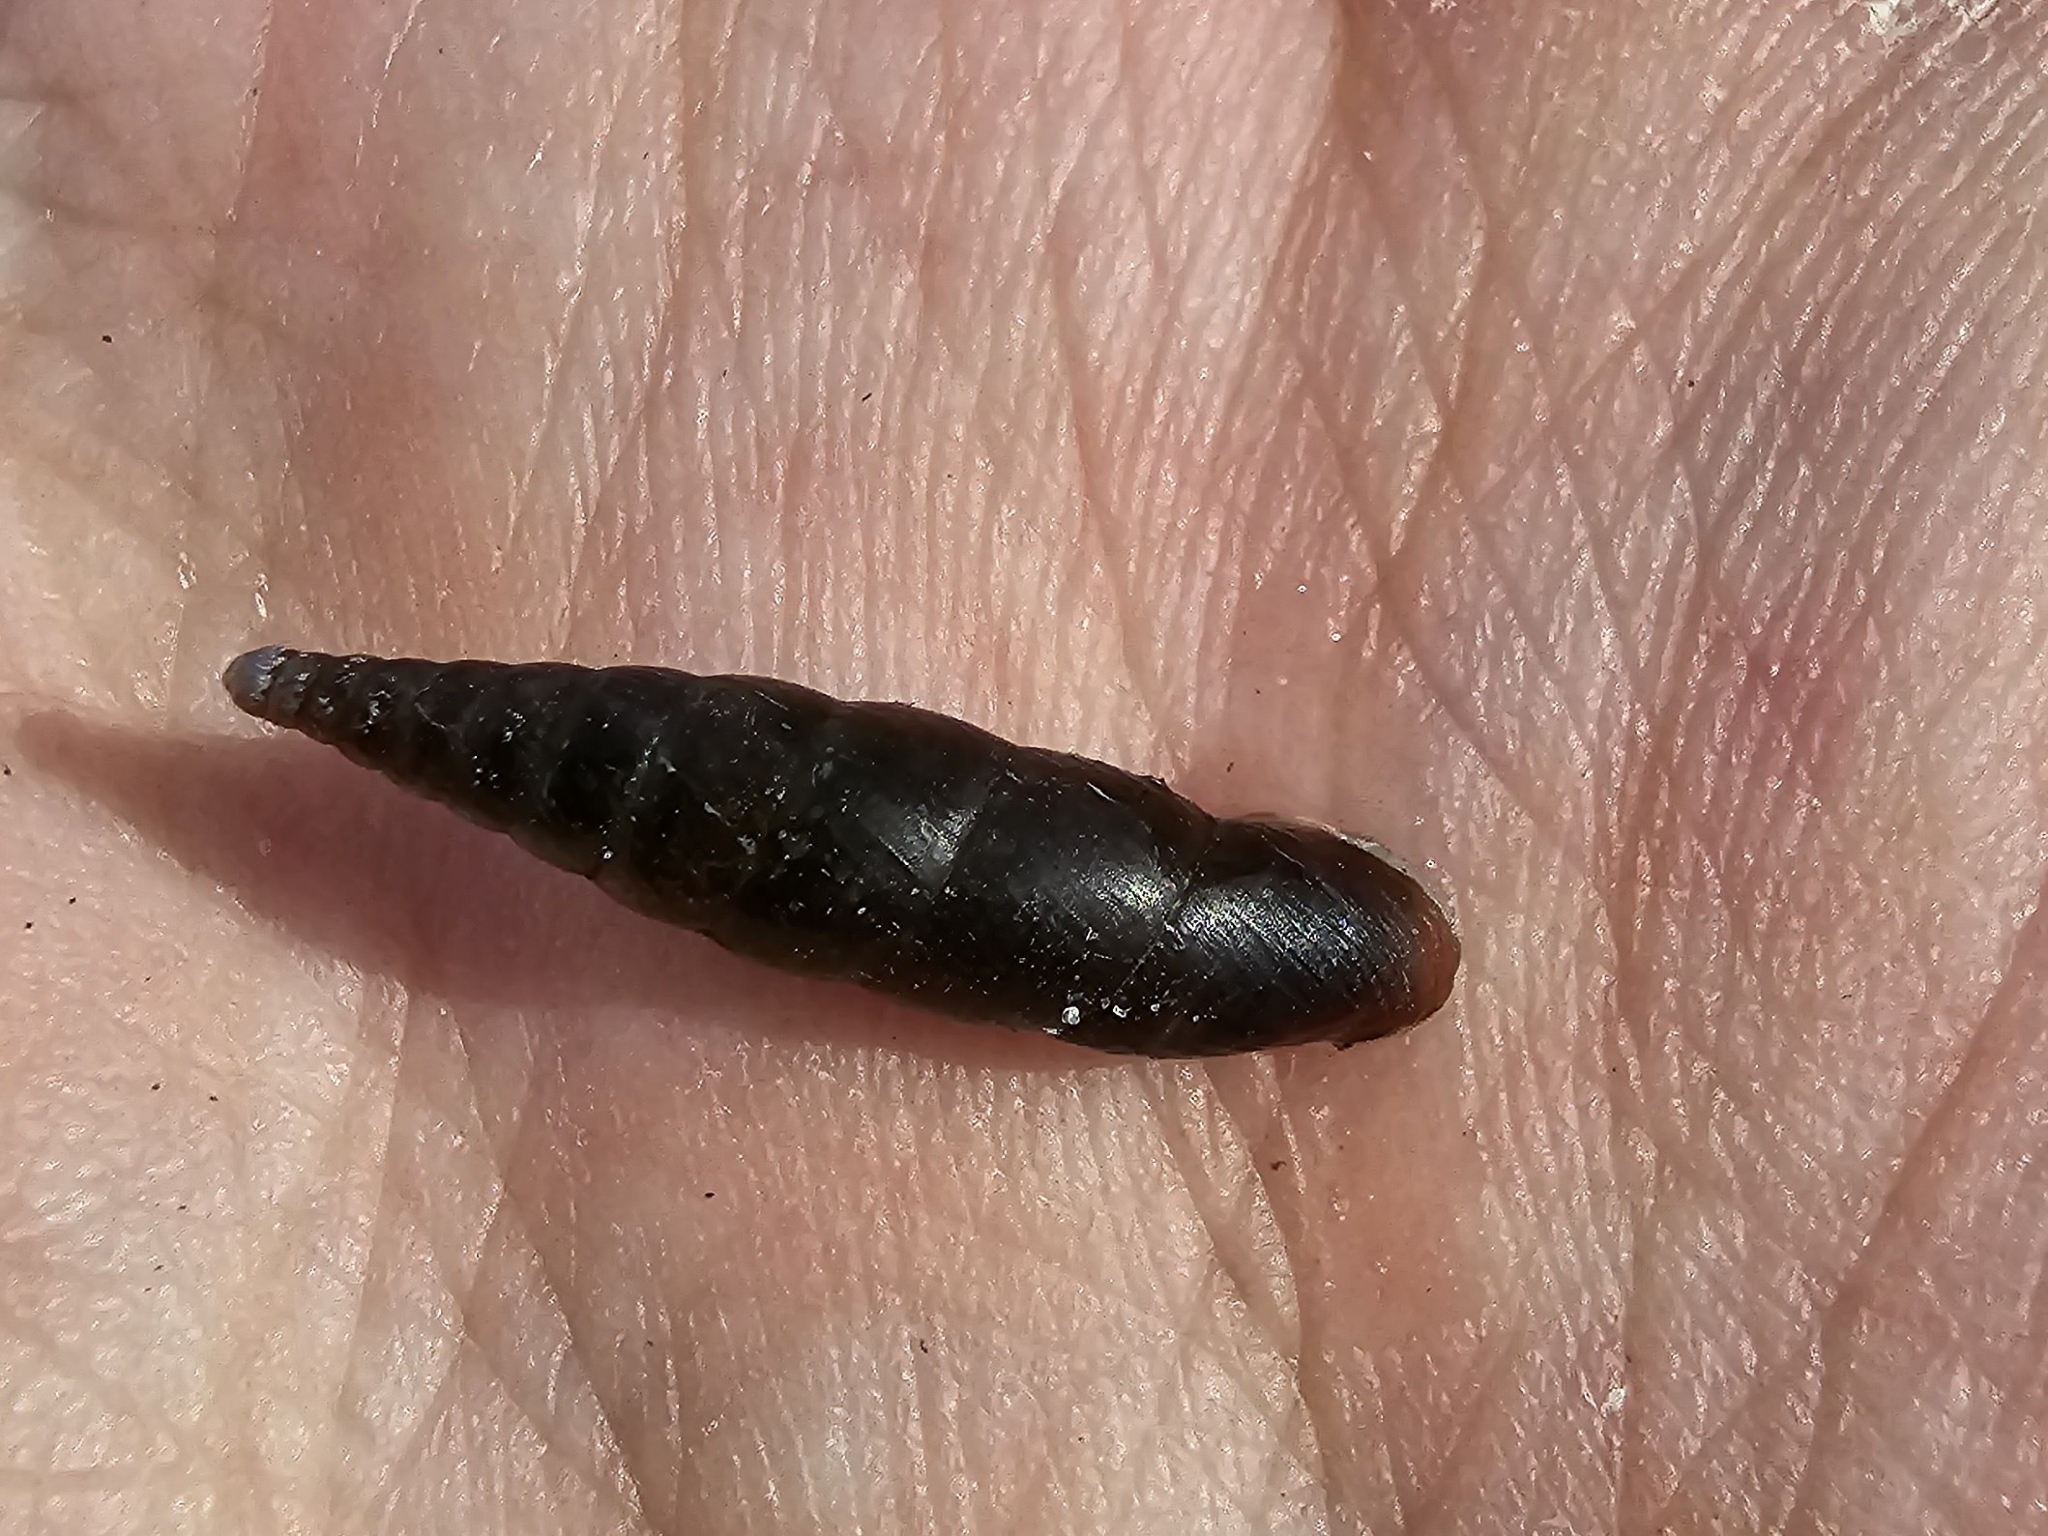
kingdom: Animalia
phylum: Mollusca
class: Gastropoda
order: Stylommatophora
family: Clausiliidae
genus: Cochlodina
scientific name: Cochlodina laminata
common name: Plaited door snail
